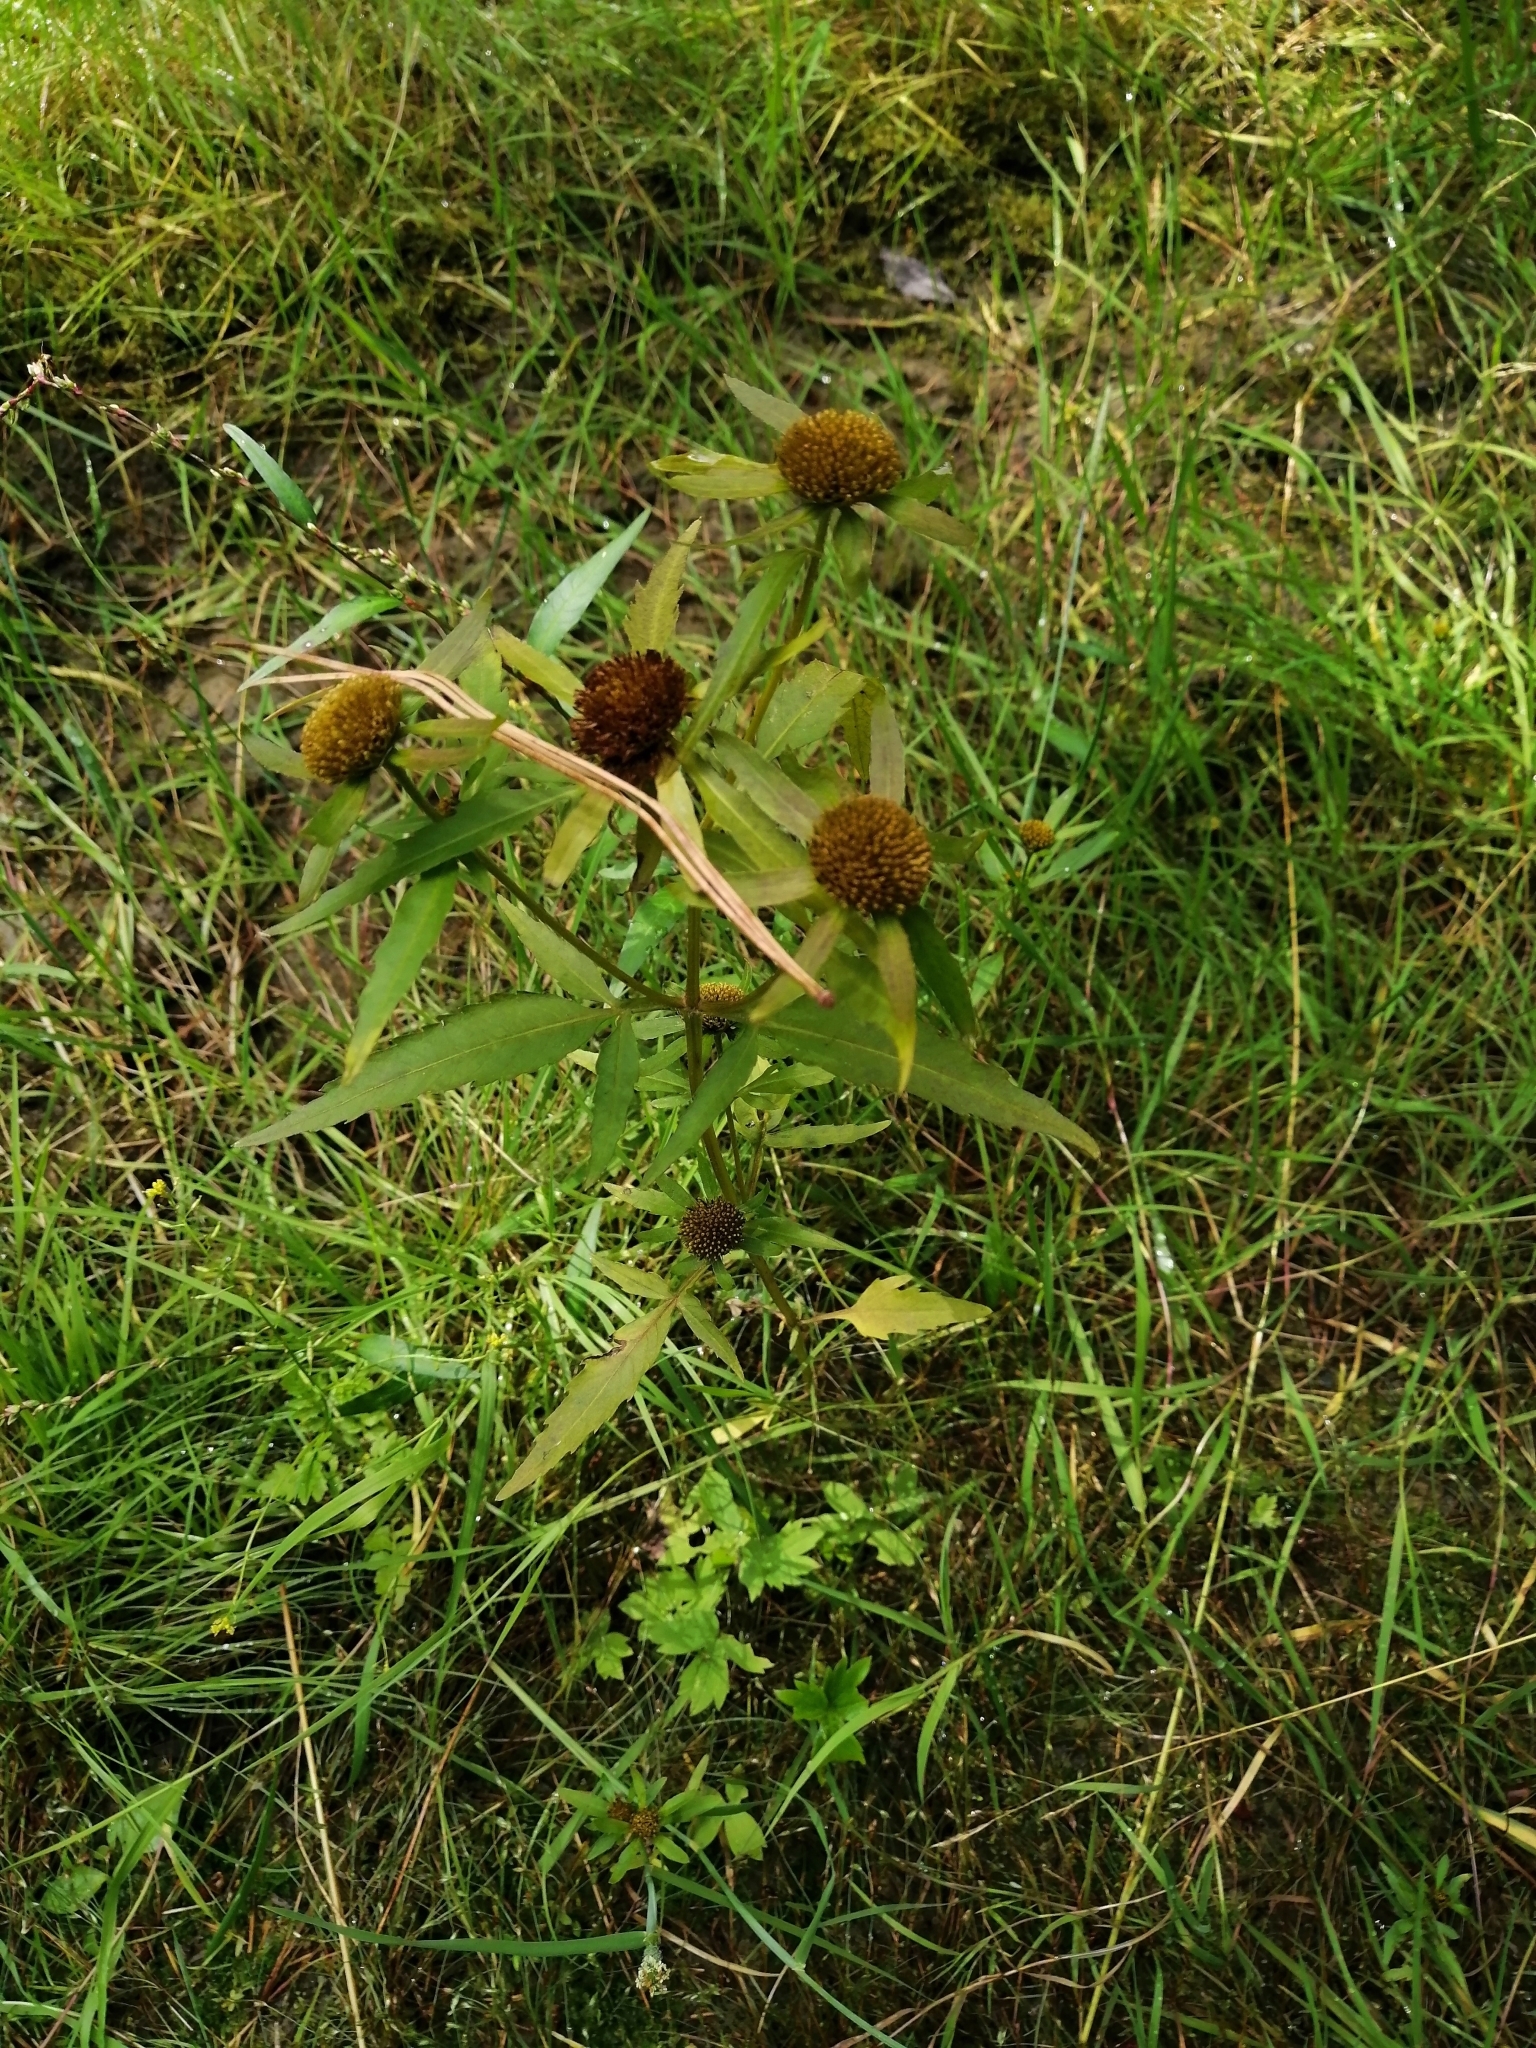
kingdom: Plantae
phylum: Tracheophyta
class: Magnoliopsida
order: Asterales
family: Asteraceae
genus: Bidens
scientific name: Bidens radiata
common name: Radiating bur-marigold
